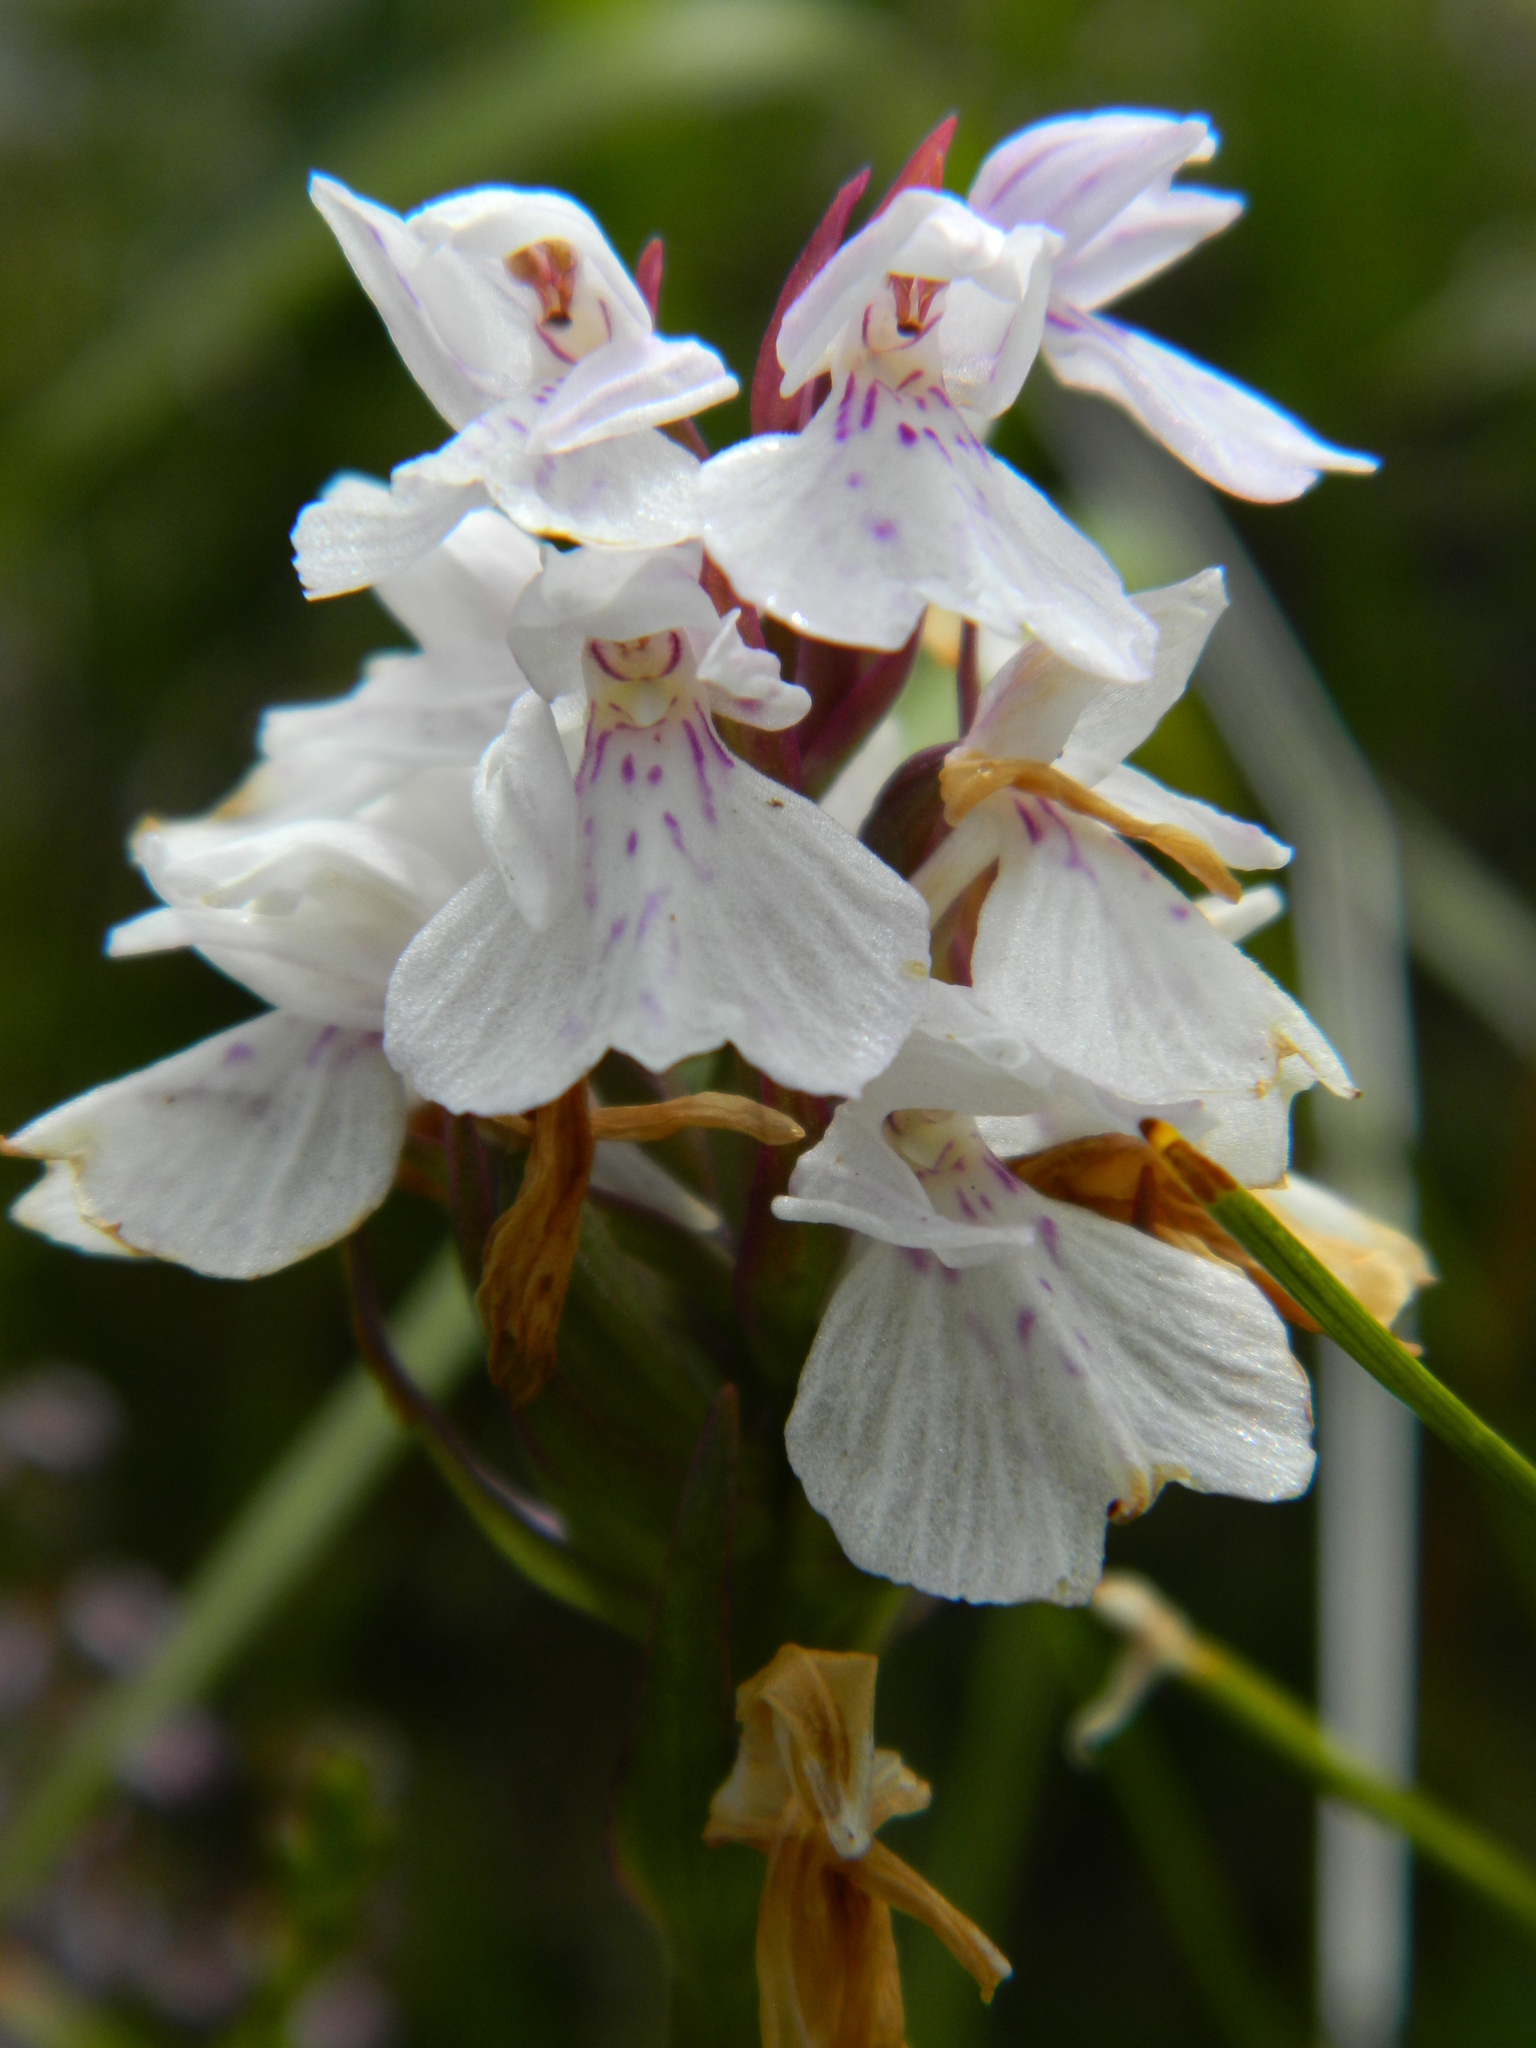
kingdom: Plantae
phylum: Tracheophyta
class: Liliopsida
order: Asparagales
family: Orchidaceae
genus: Dactylorhiza
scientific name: Dactylorhiza maculata
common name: Heath spotted-orchid
